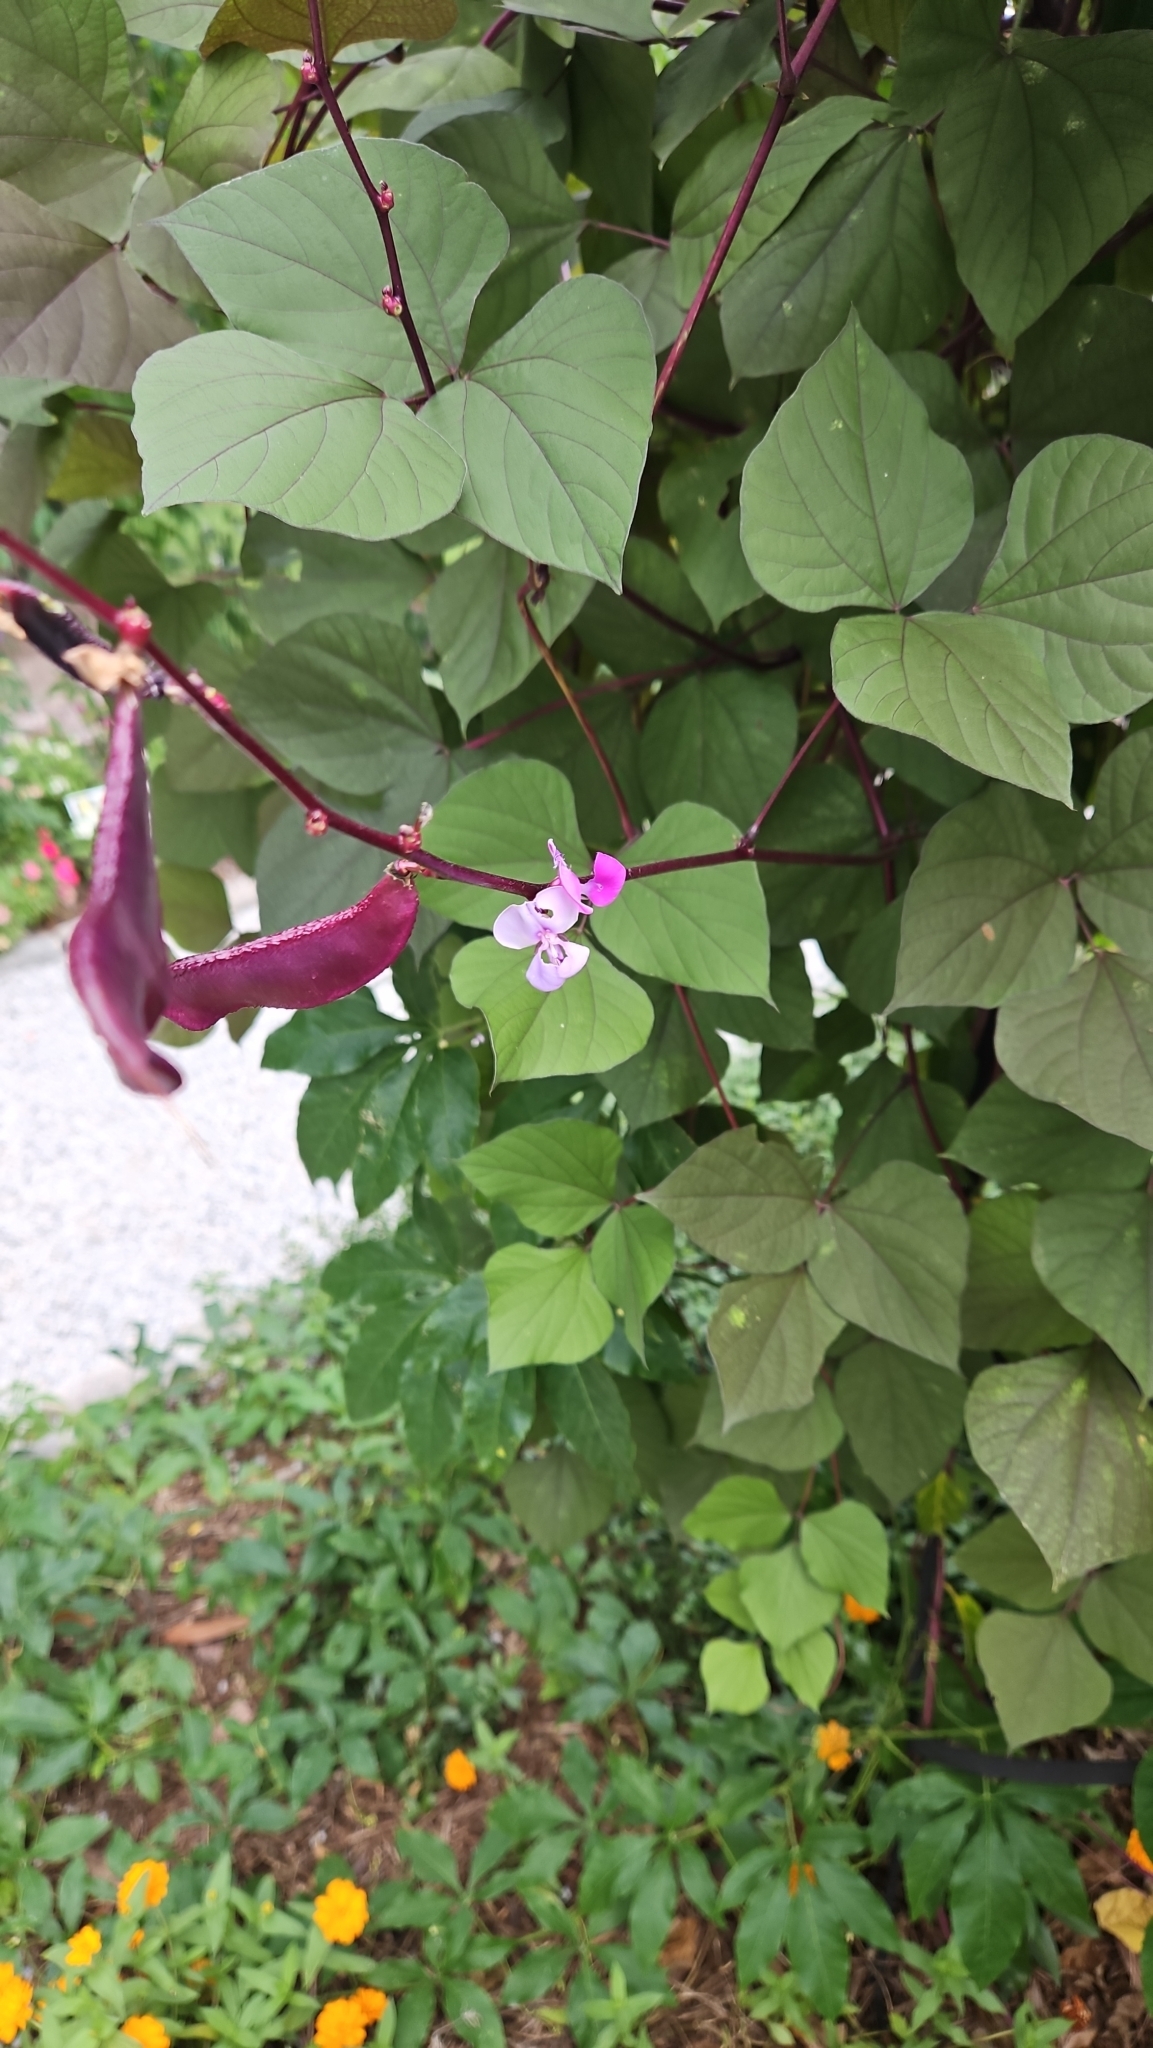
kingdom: Plantae
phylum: Tracheophyta
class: Magnoliopsida
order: Fabales
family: Fabaceae
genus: Lablab
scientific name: Lablab purpureus
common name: Lablab-bean
